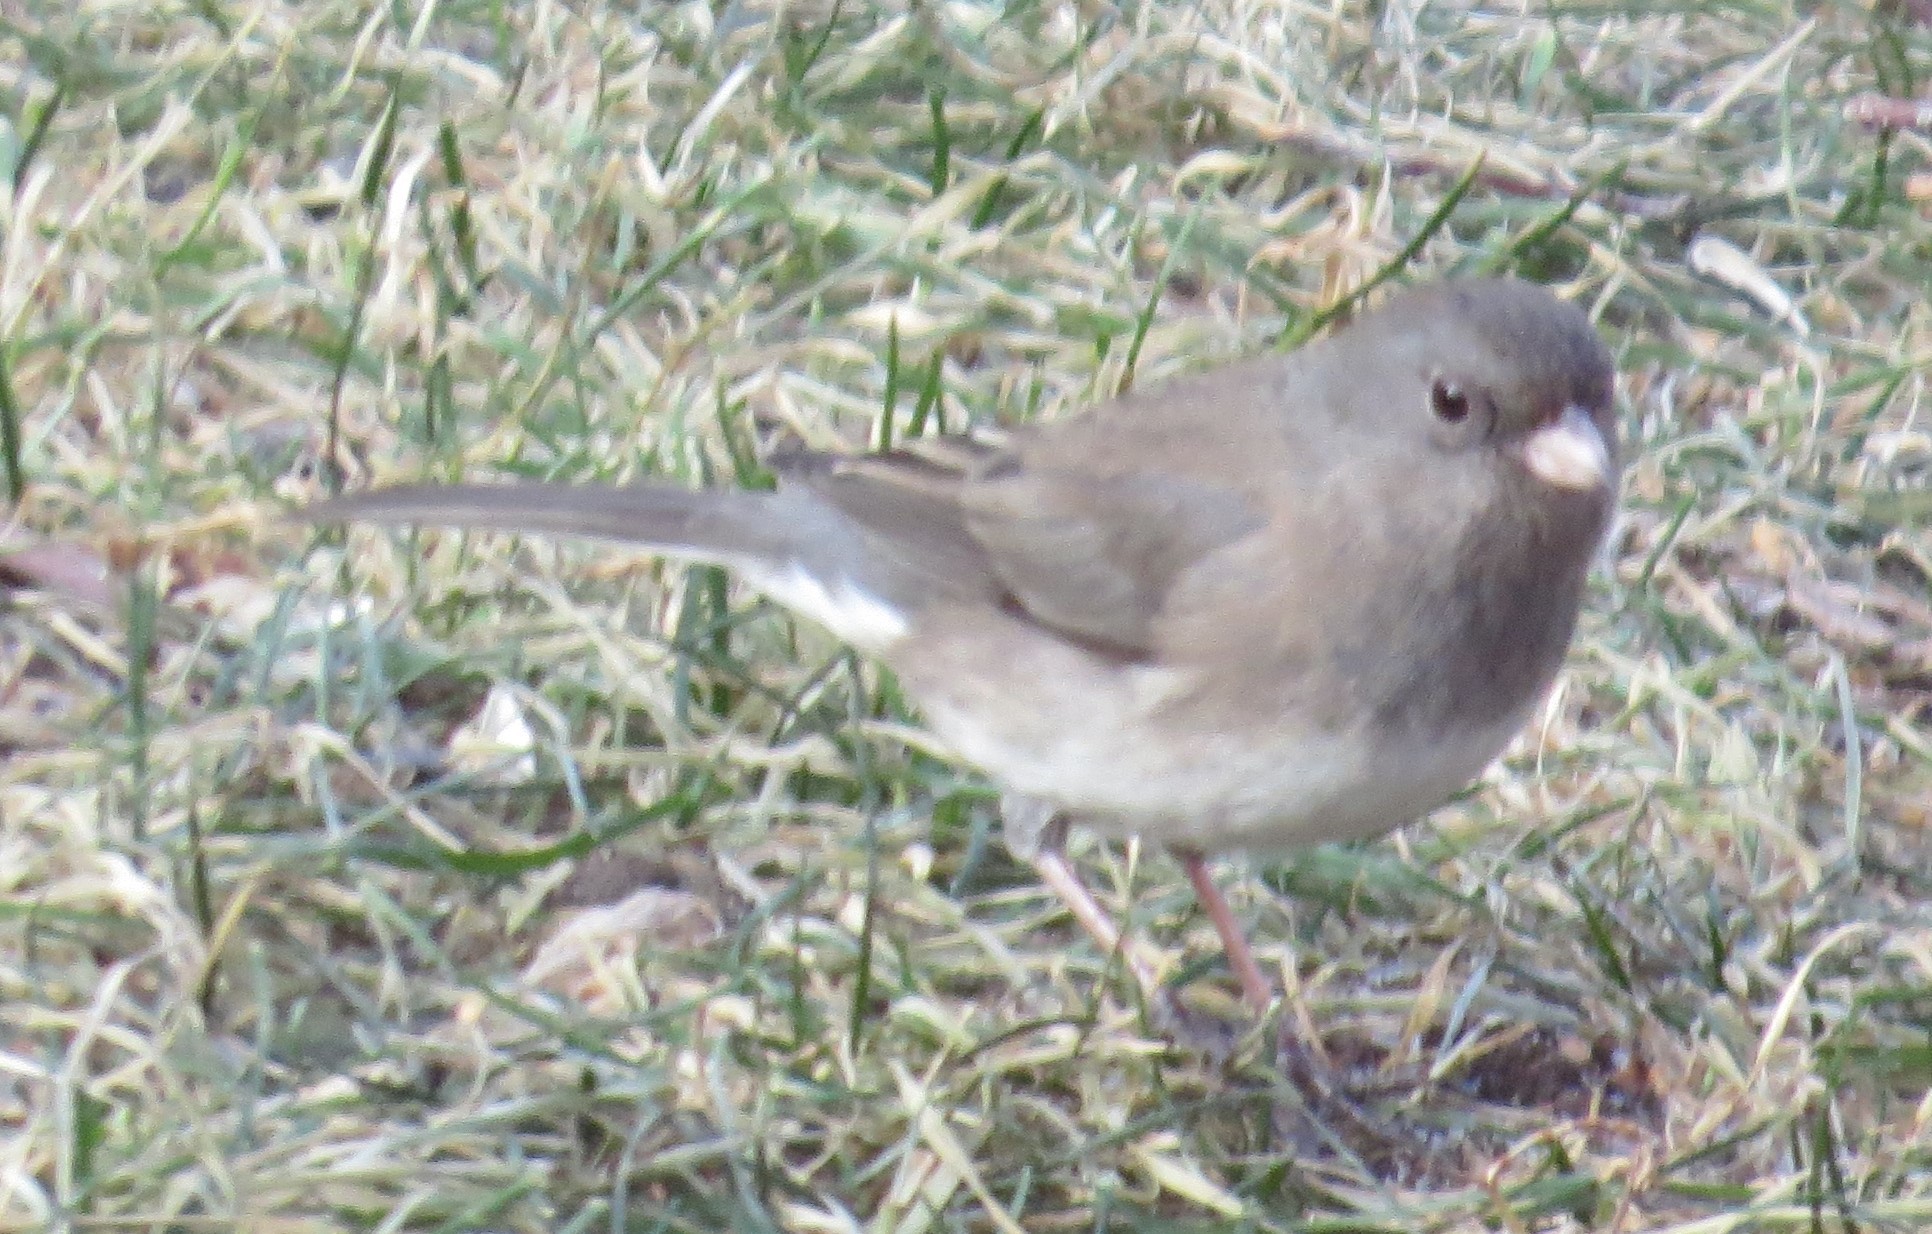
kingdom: Animalia
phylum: Chordata
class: Aves
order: Passeriformes
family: Passerellidae
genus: Junco
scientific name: Junco hyemalis
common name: Dark-eyed junco
